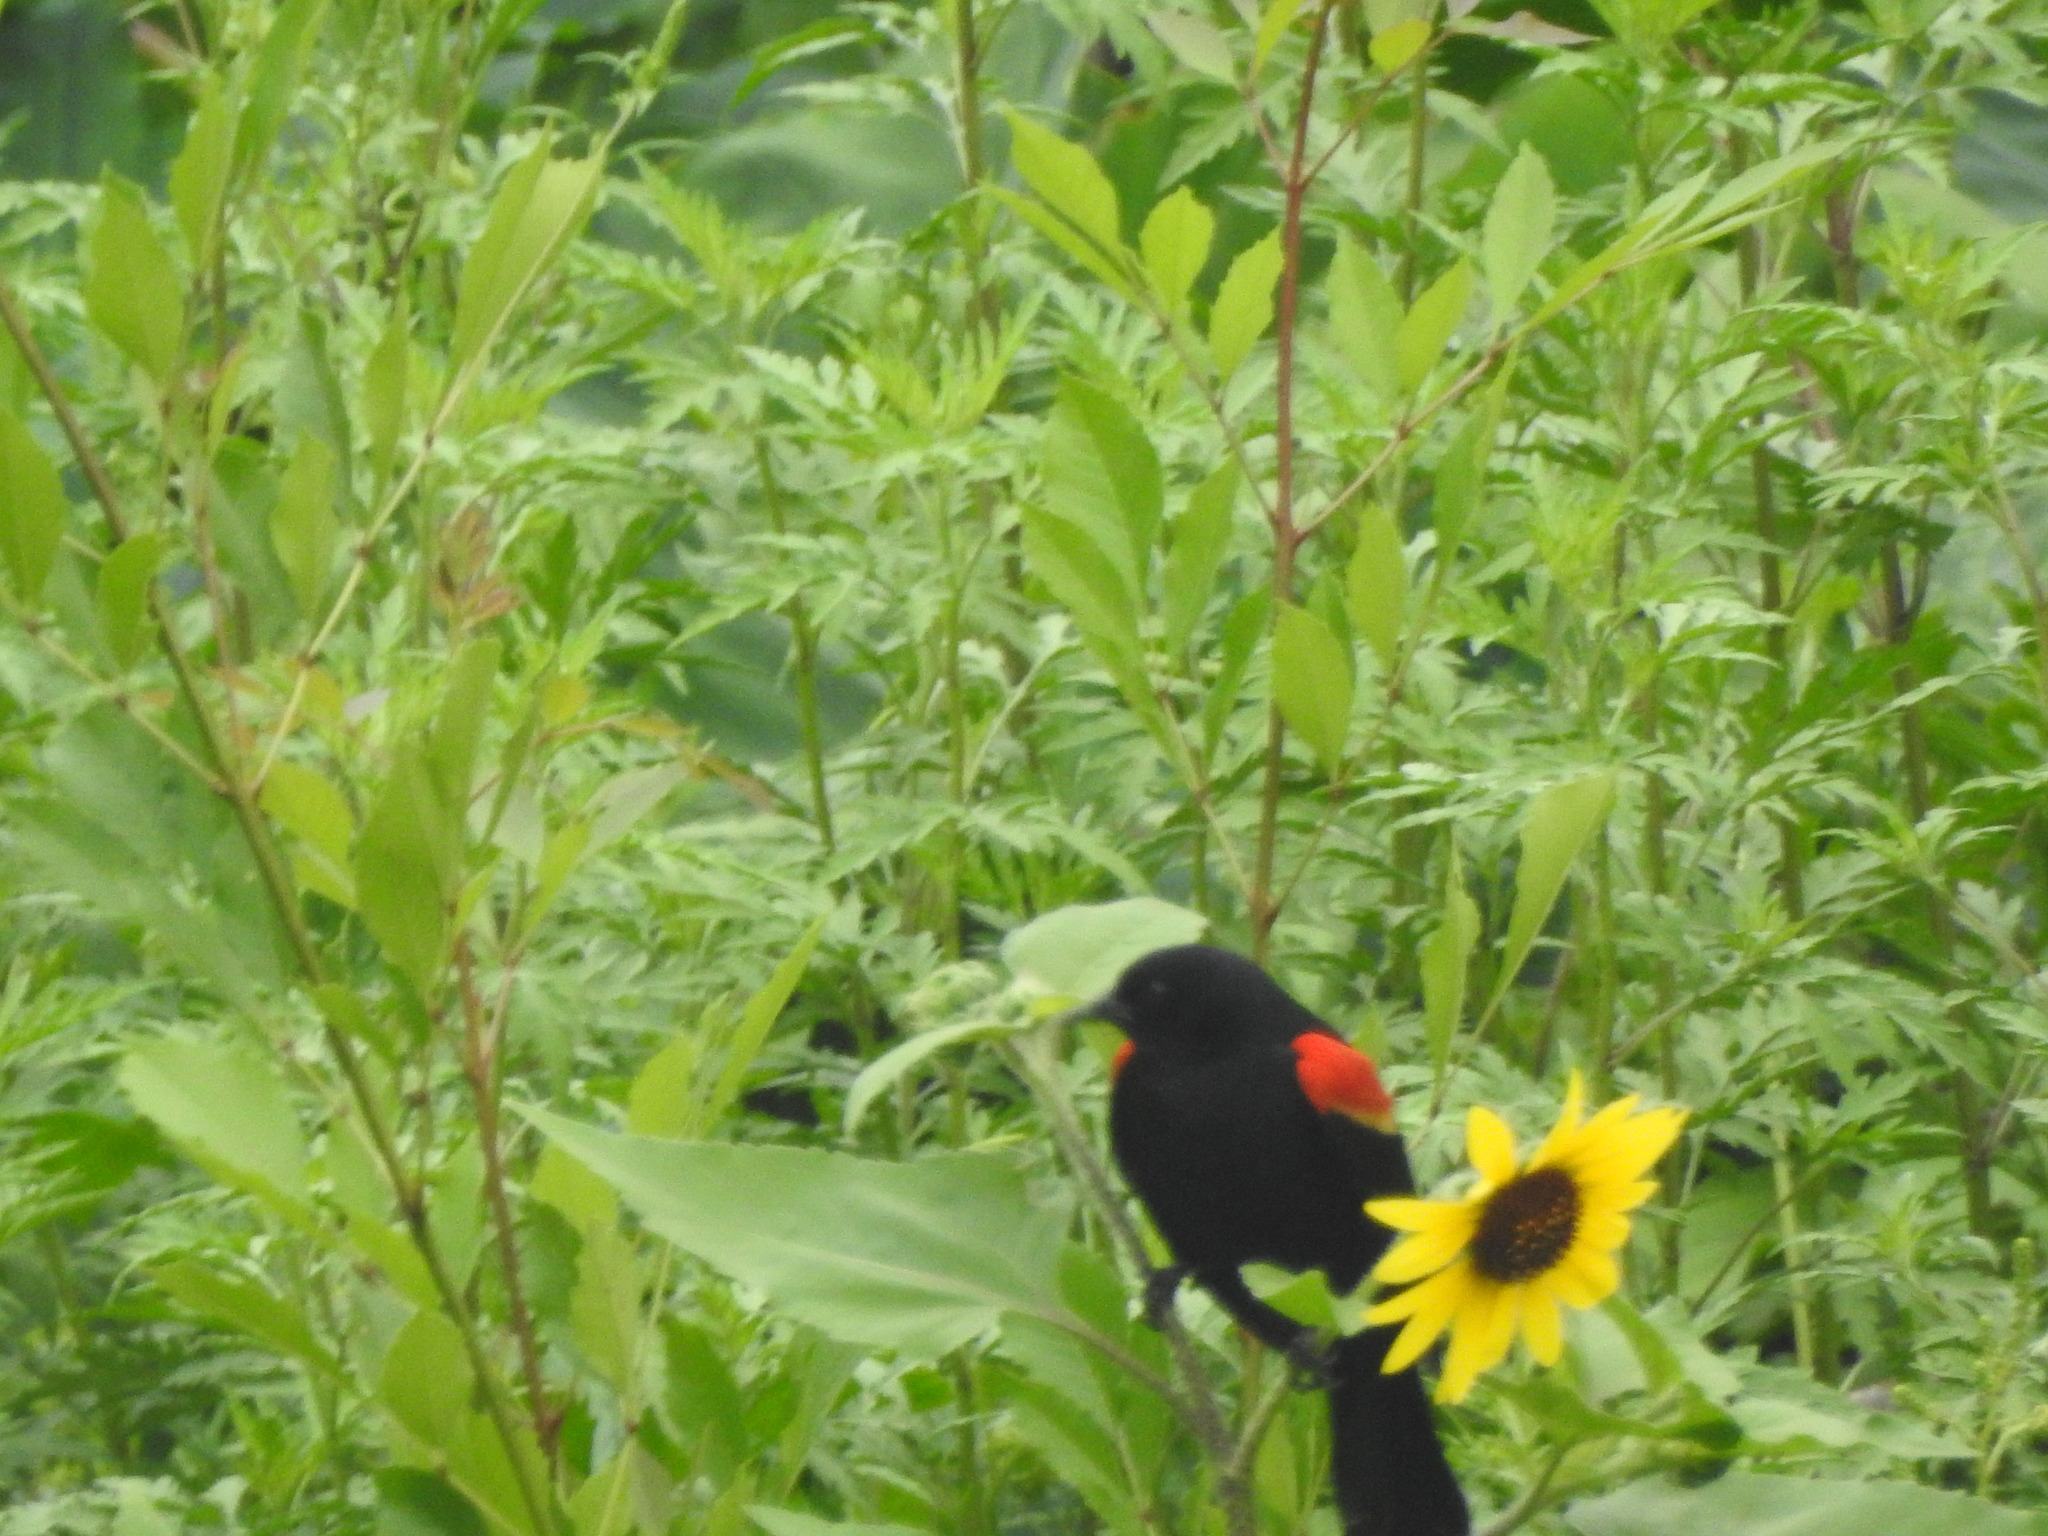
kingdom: Animalia
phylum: Chordata
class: Aves
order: Passeriformes
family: Icteridae
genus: Agelaius
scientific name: Agelaius phoeniceus
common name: Red-winged blackbird
